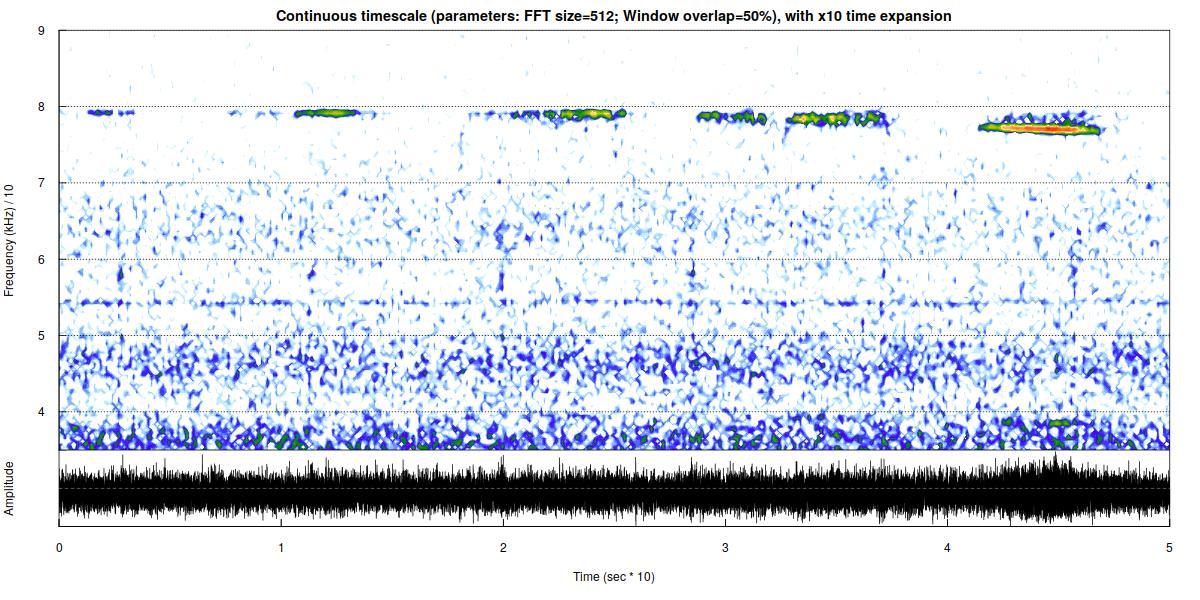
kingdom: Animalia
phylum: Chordata
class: Mammalia
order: Chiroptera
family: Rhinolophidae
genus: Rhinolophus
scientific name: Rhinolophus ferrumequinum
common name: Greater horseshoe bat
